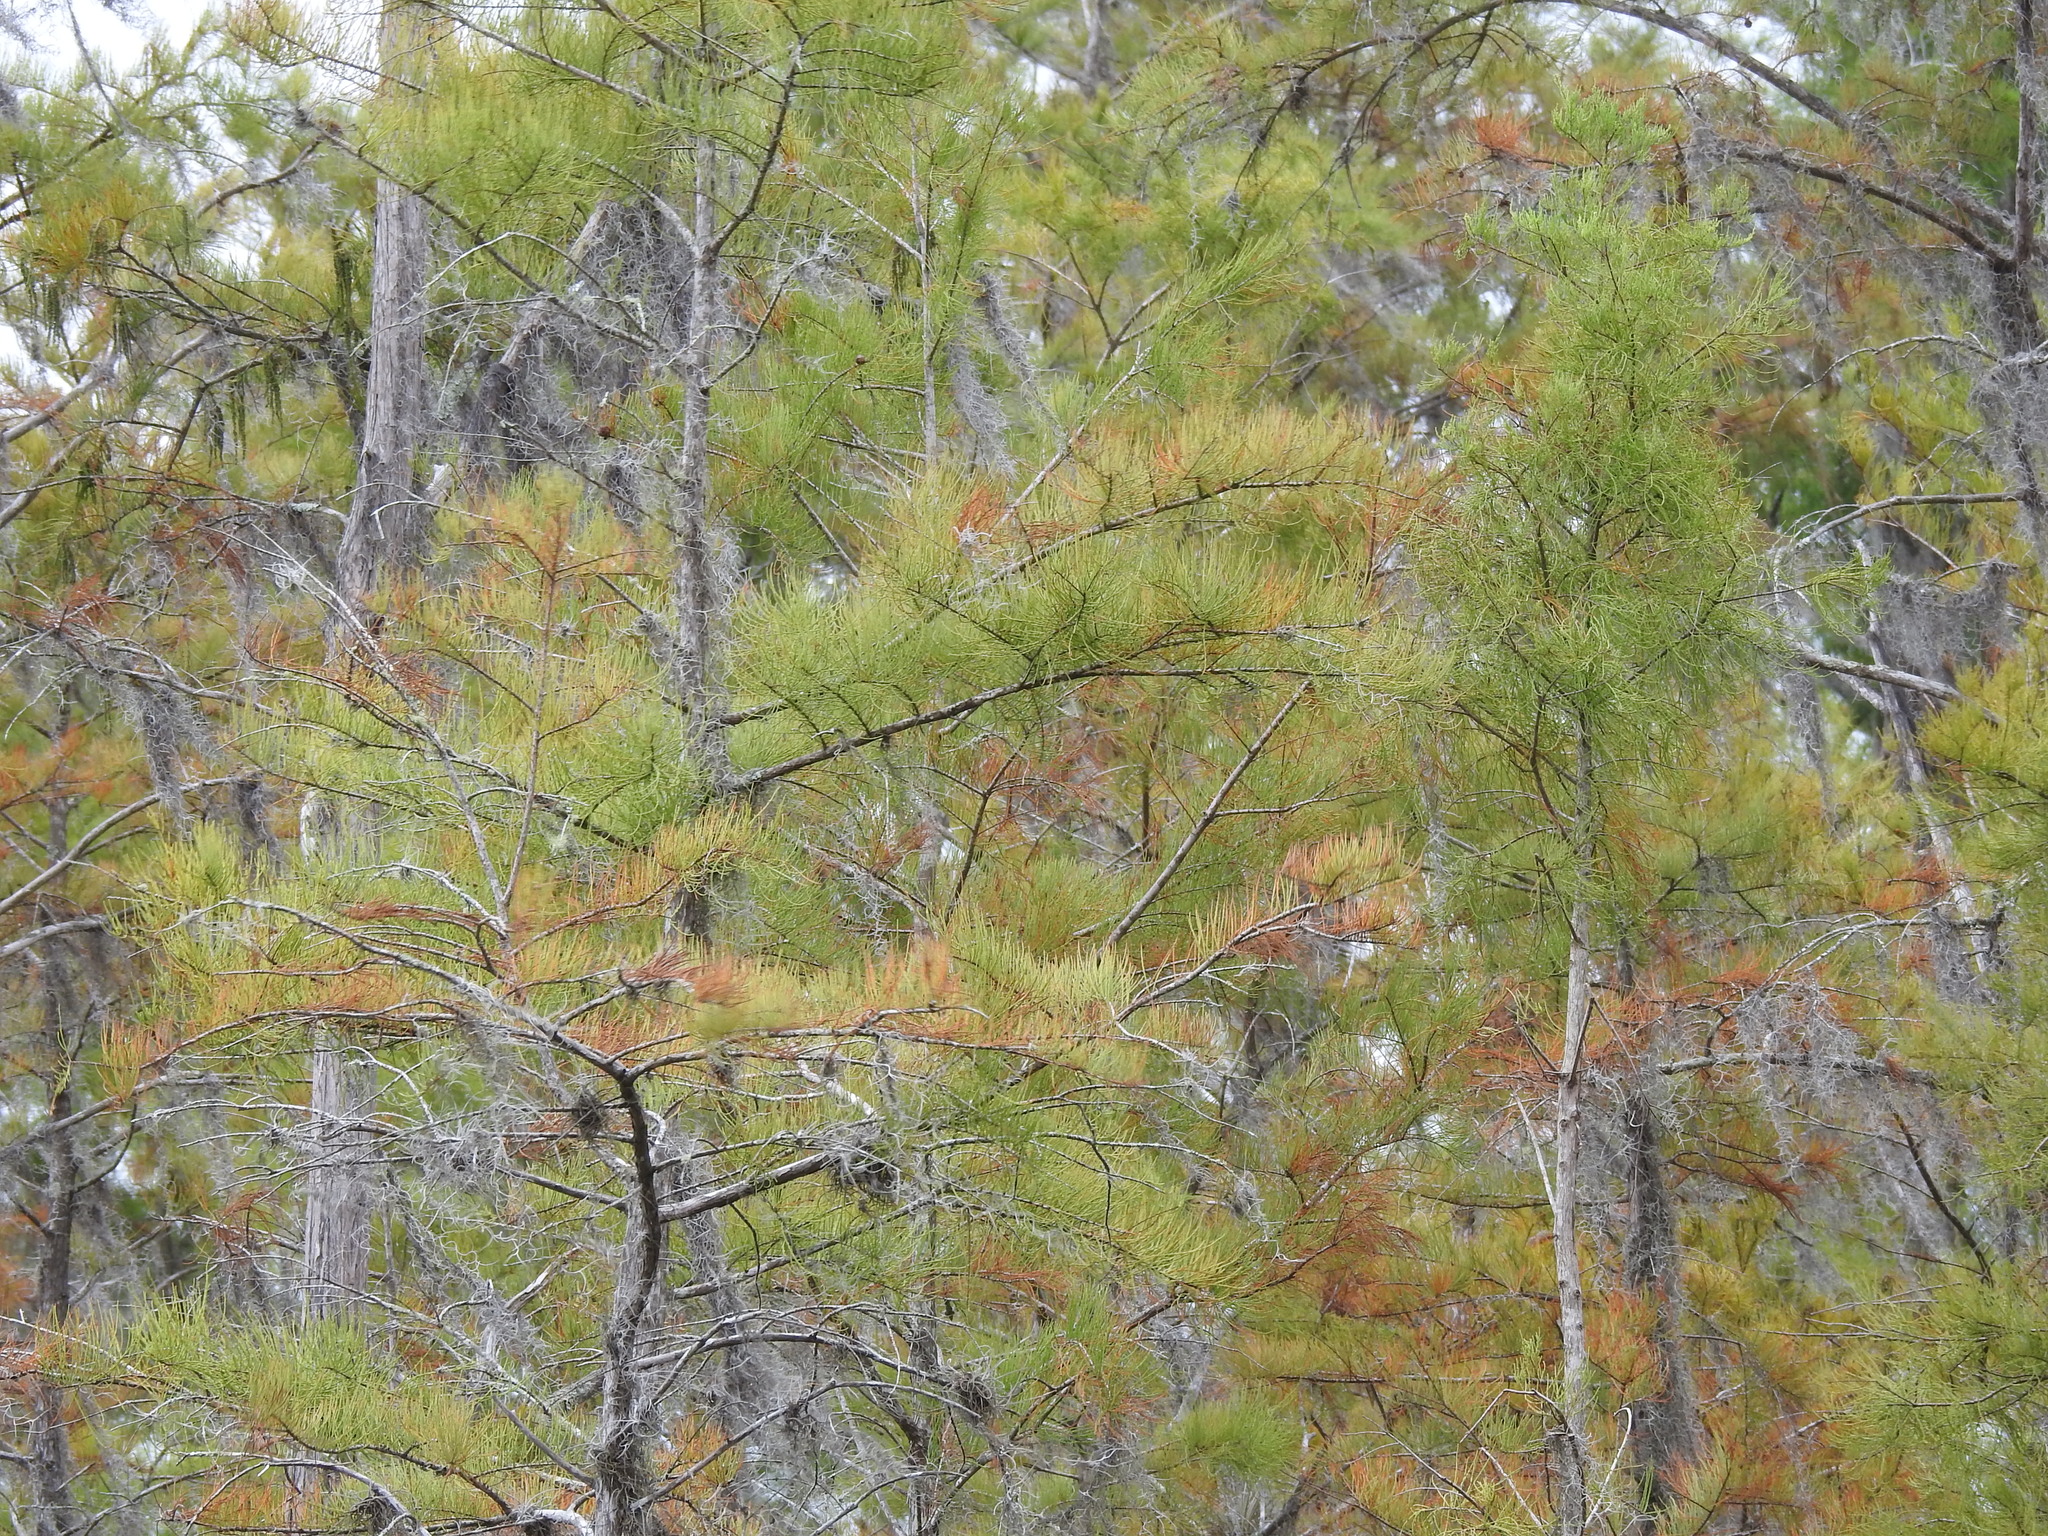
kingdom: Plantae
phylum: Tracheophyta
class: Pinopsida
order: Pinales
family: Cupressaceae
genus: Taxodium
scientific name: Taxodium distichum
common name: Bald cypress
